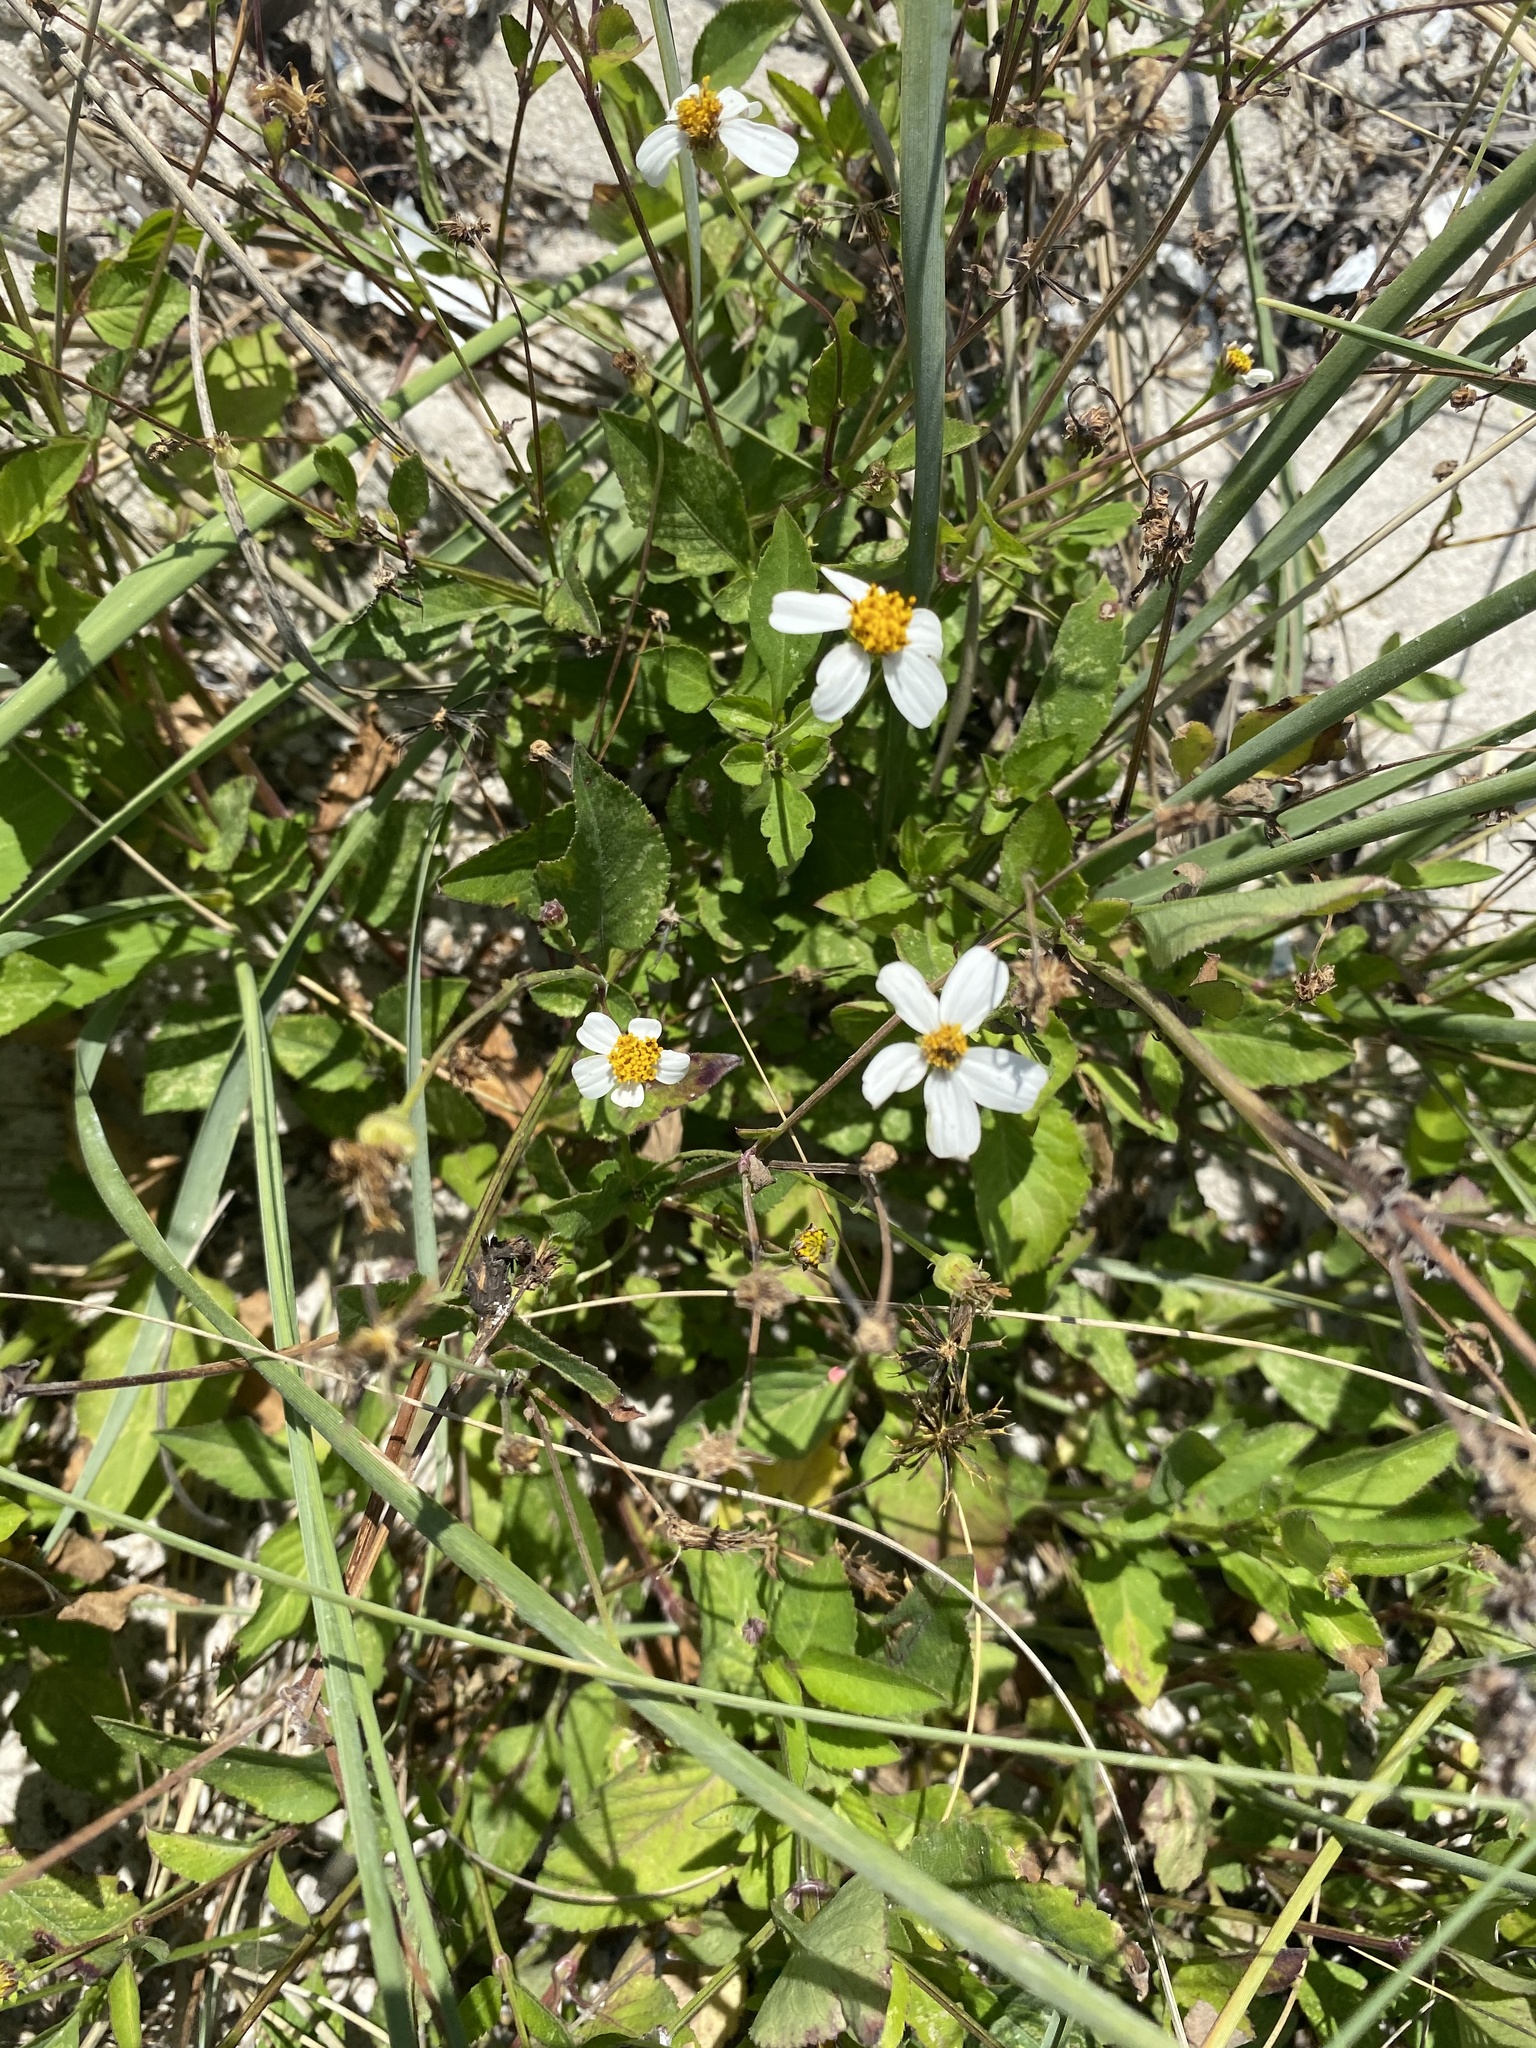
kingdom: Plantae
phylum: Tracheophyta
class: Magnoliopsida
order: Asterales
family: Asteraceae
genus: Bidens
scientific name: Bidens alba
